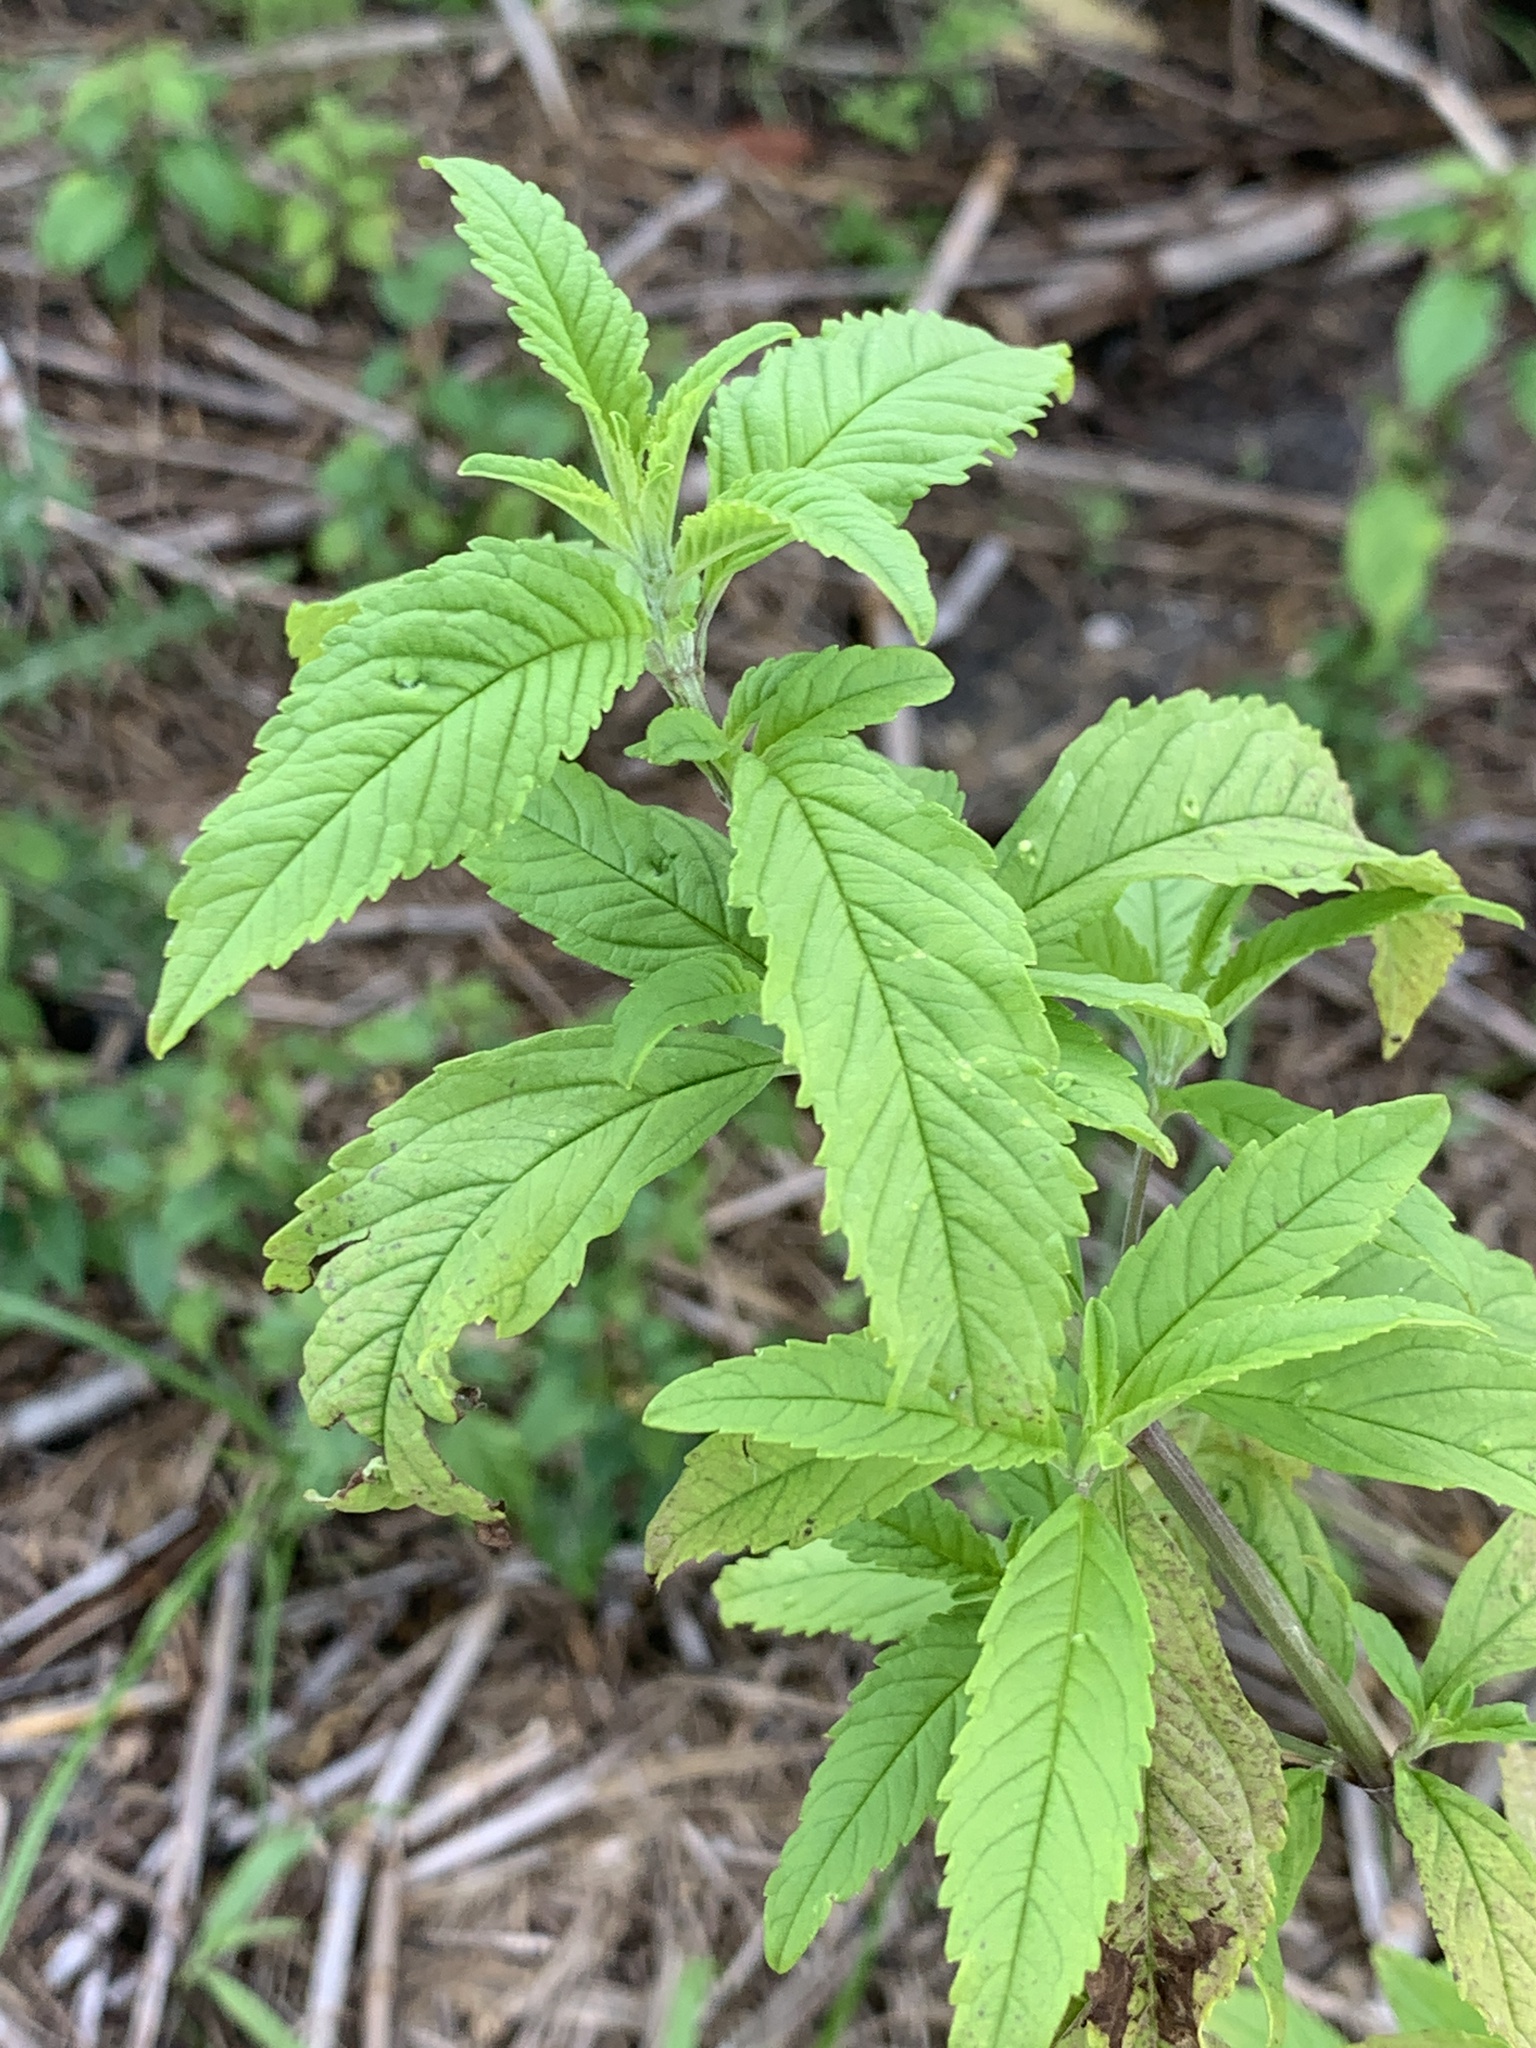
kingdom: Plantae
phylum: Tracheophyta
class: Magnoliopsida
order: Lamiales
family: Lamiaceae
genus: Condea
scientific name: Condea verticillata
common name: John charles
